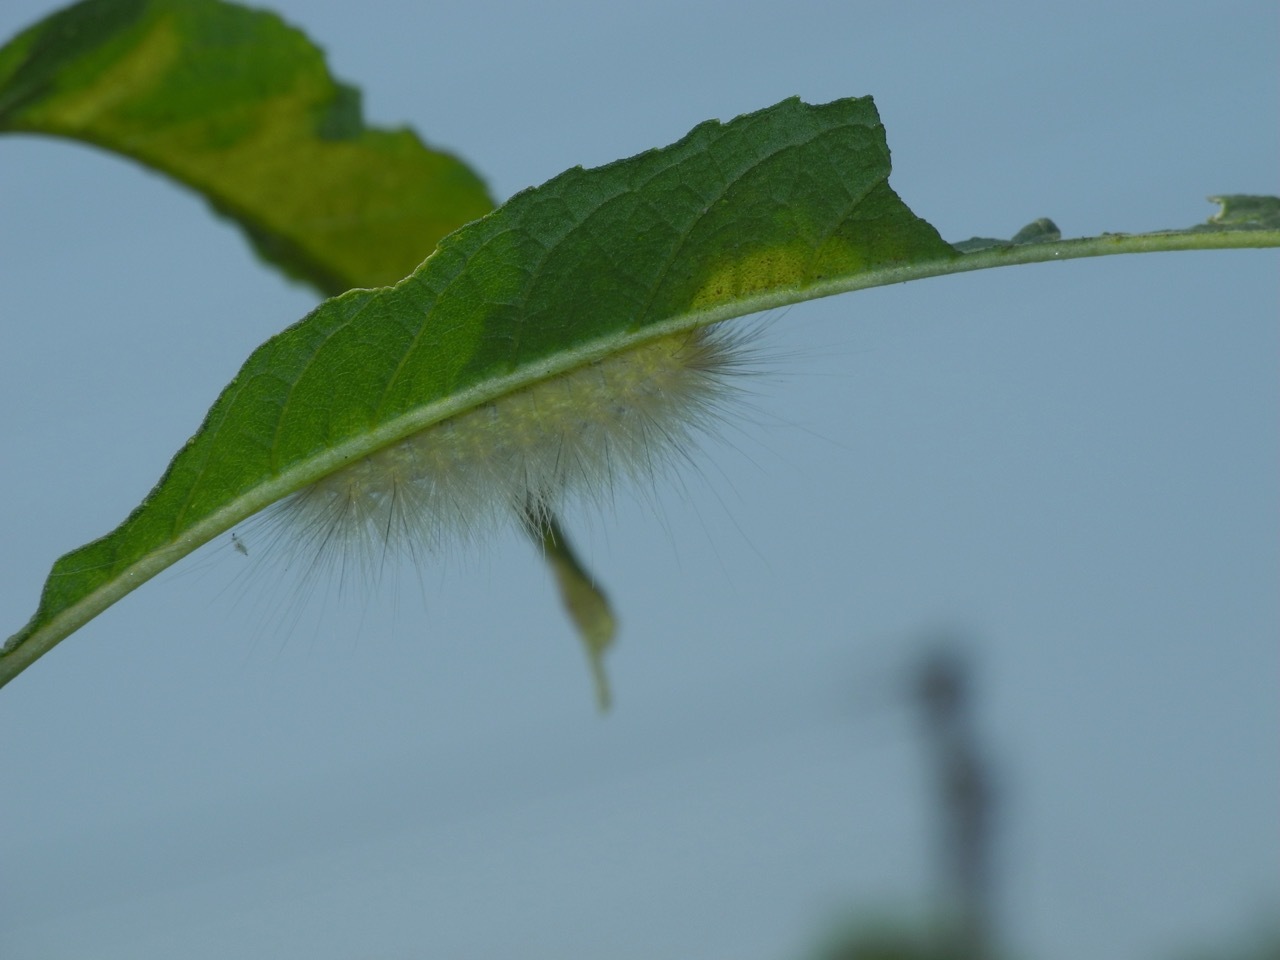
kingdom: Animalia
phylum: Arthropoda
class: Insecta
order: Lepidoptera
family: Erebidae
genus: Spilosoma
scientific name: Spilosoma virginica
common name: Virginia tiger moth
